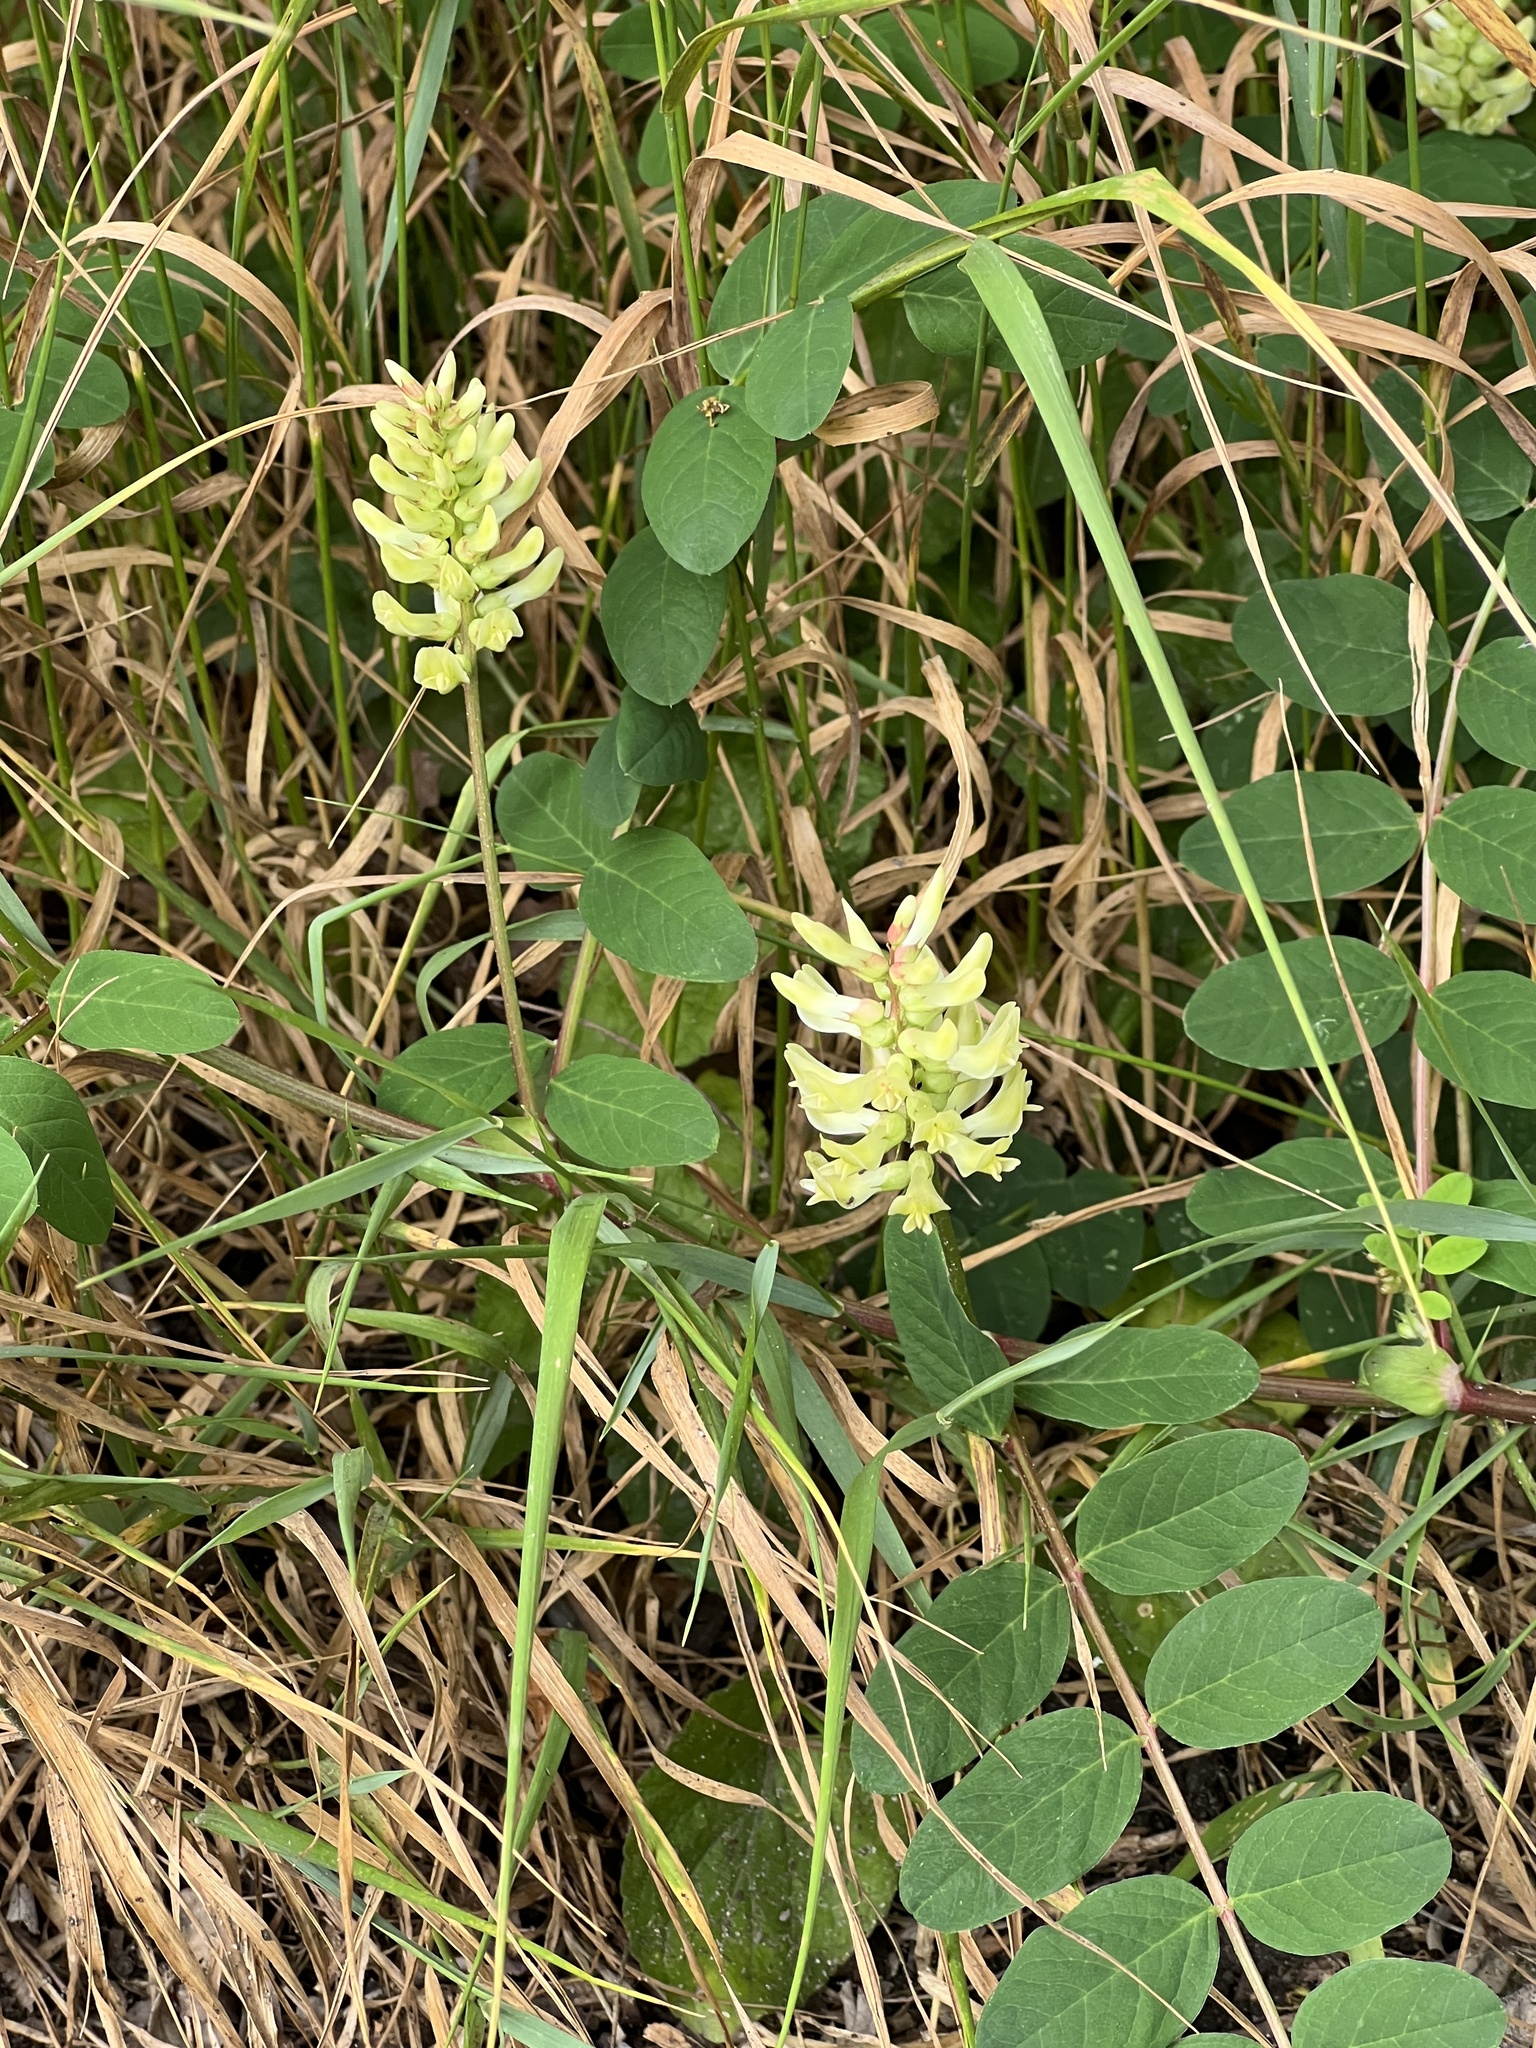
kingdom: Plantae
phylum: Tracheophyta
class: Magnoliopsida
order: Fabales
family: Fabaceae
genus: Astragalus
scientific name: Astragalus glycyphyllos
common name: Wild liquorice
